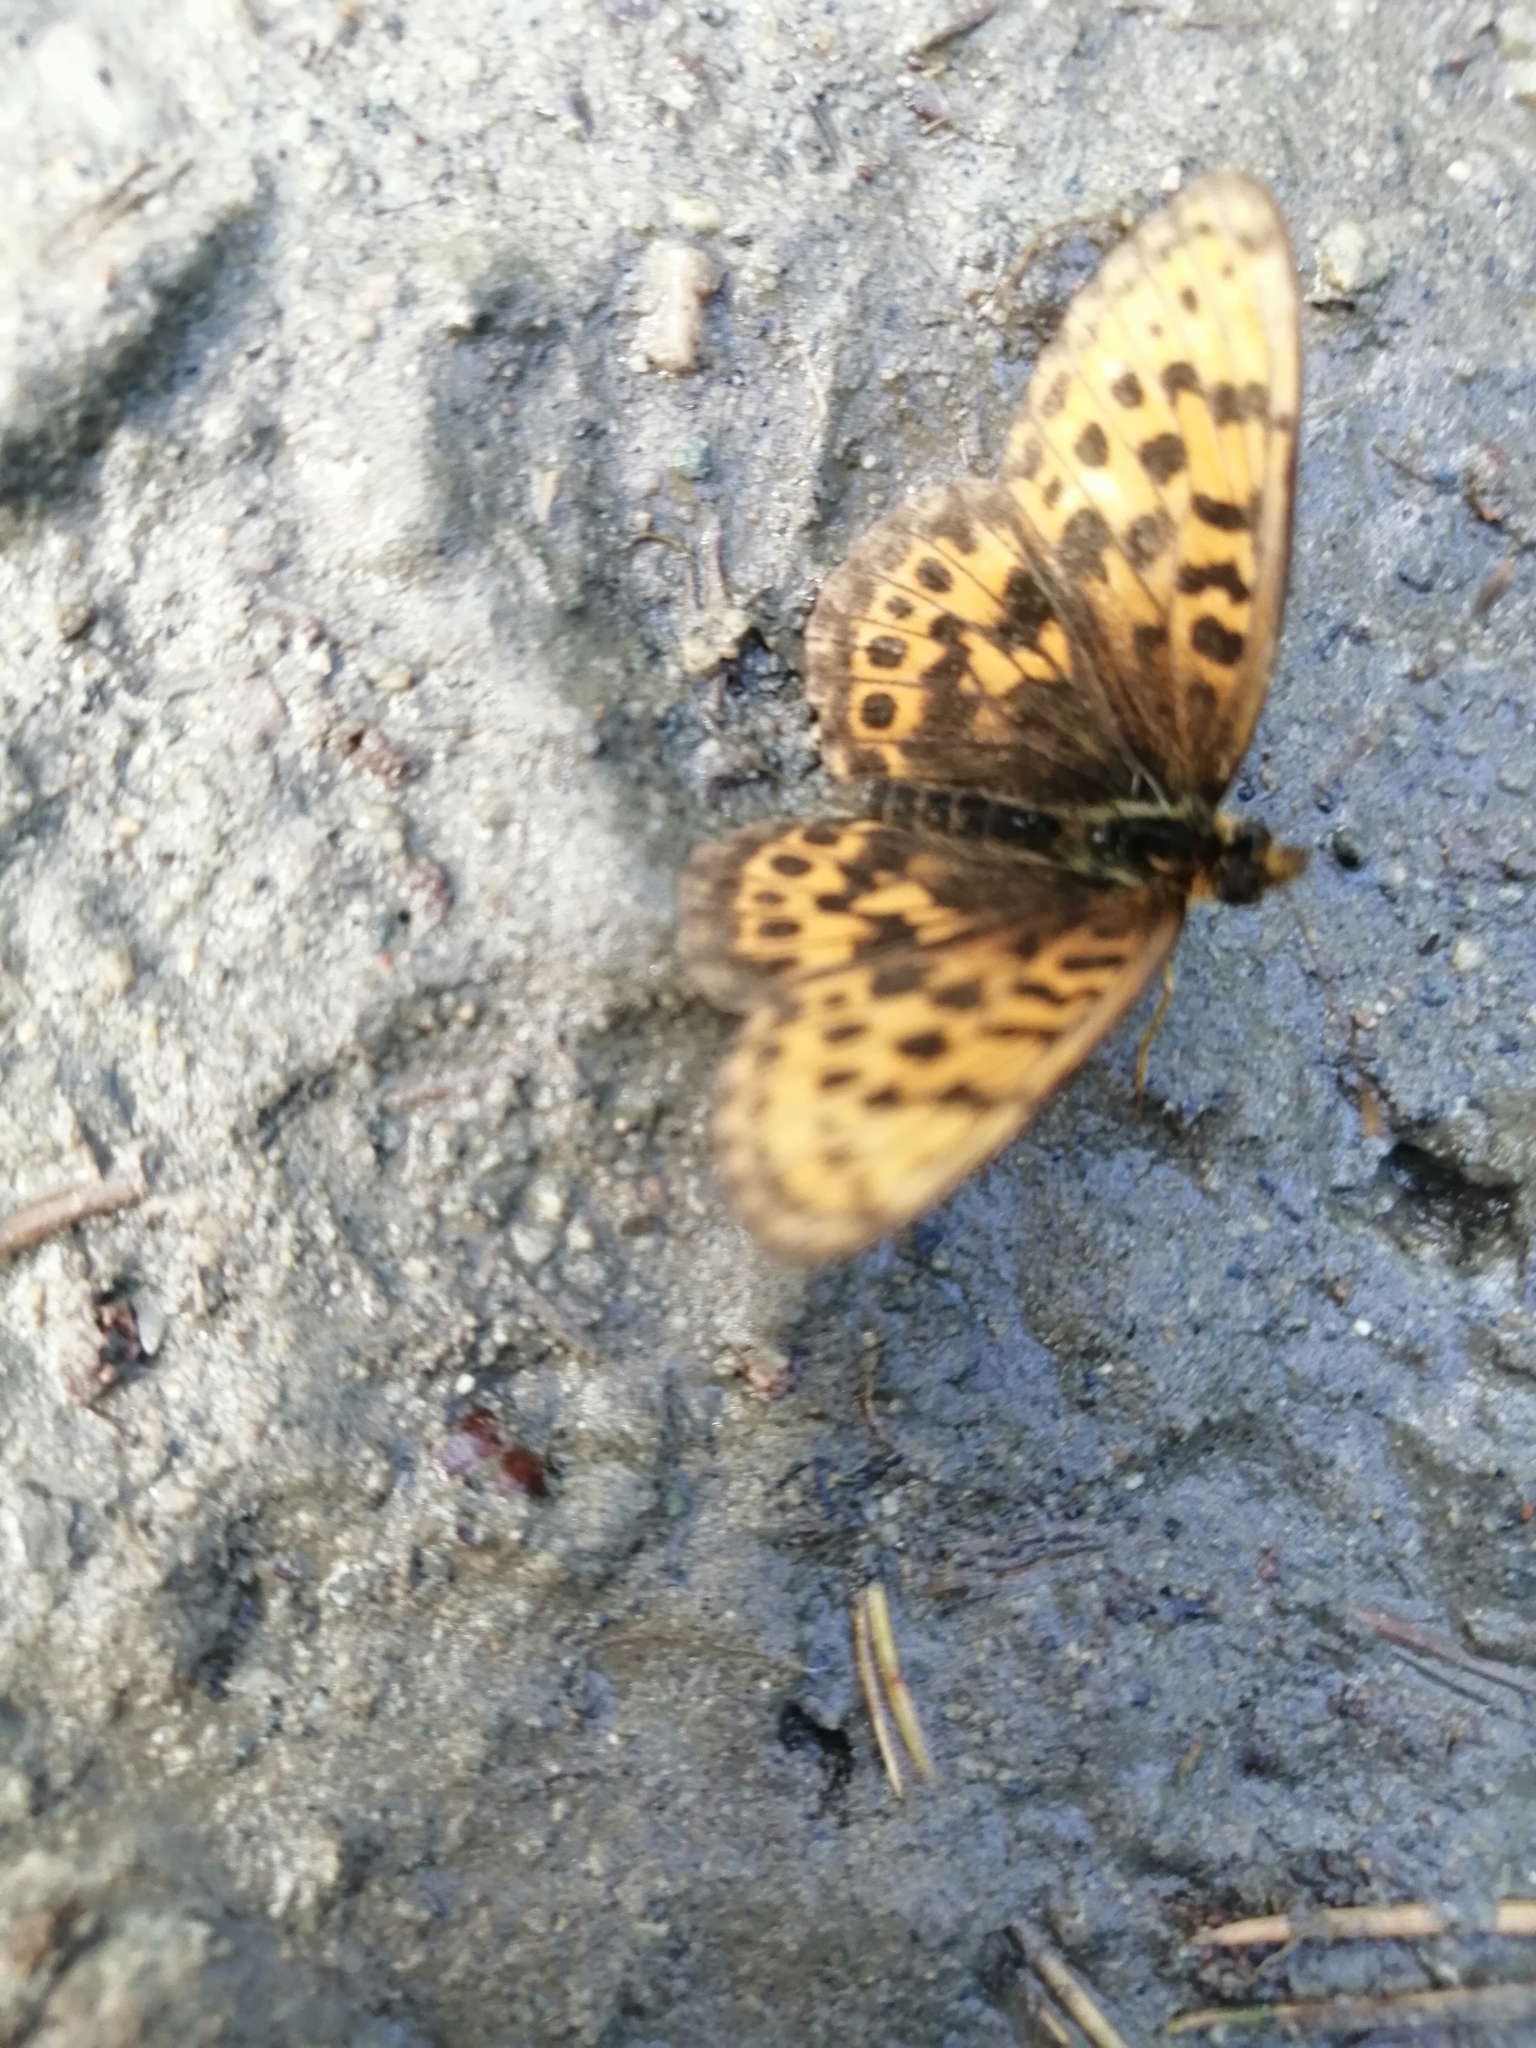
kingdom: Animalia
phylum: Arthropoda
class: Insecta
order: Lepidoptera
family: Nymphalidae
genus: Boloria
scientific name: Boloria thore
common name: Thor's fritillary
